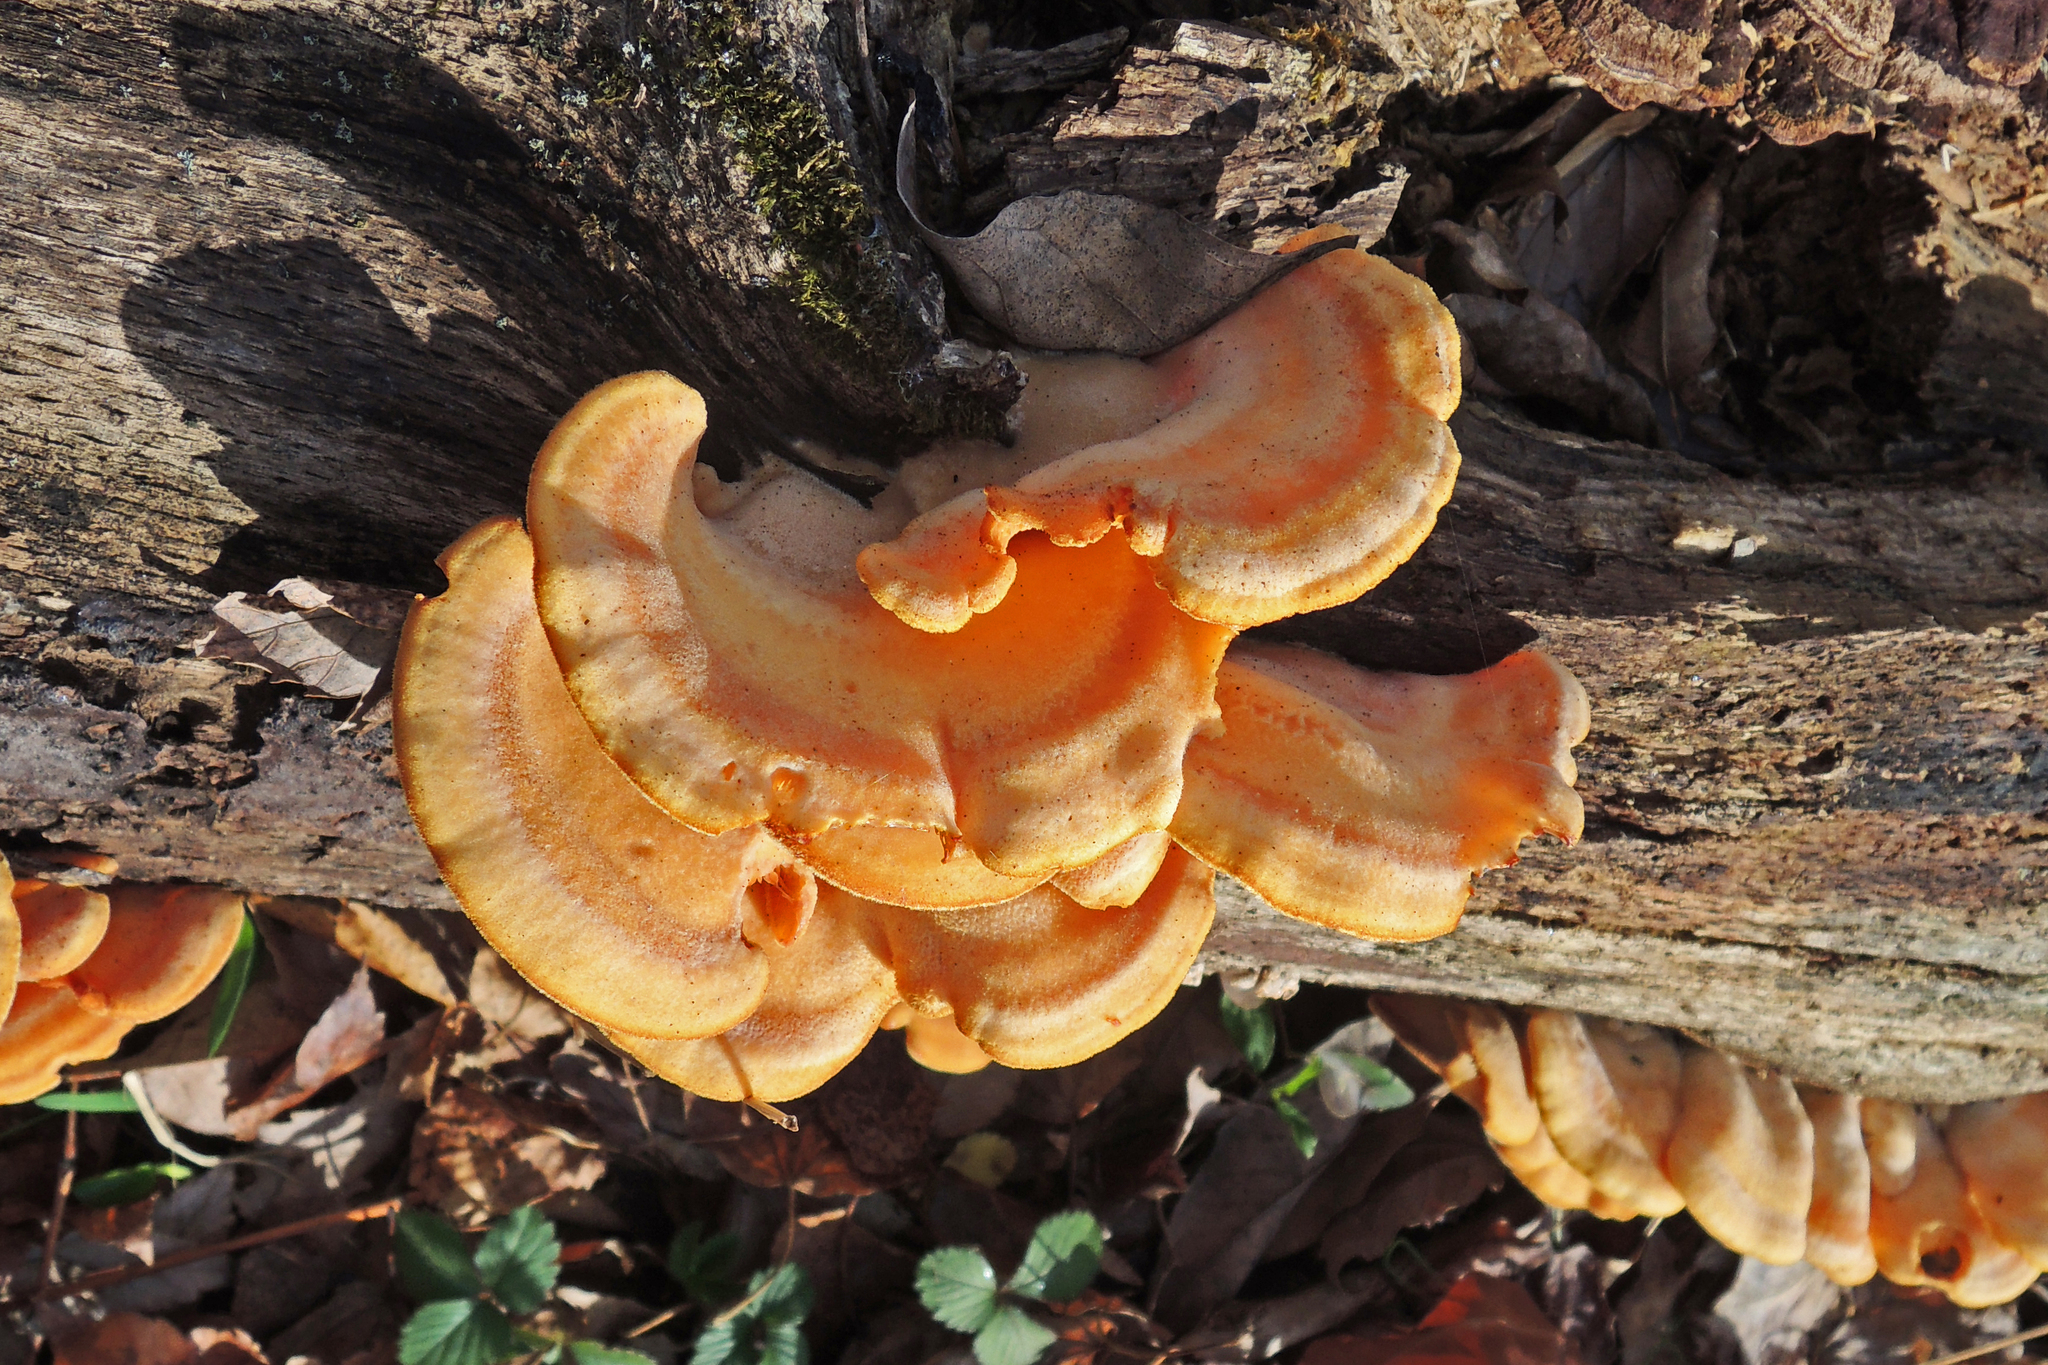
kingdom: Fungi
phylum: Basidiomycota
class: Agaricomycetes
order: Agaricales
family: Phyllotopsidaceae
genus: Phyllotopsis
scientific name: Phyllotopsis nidulans
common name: Orange mock oyster
